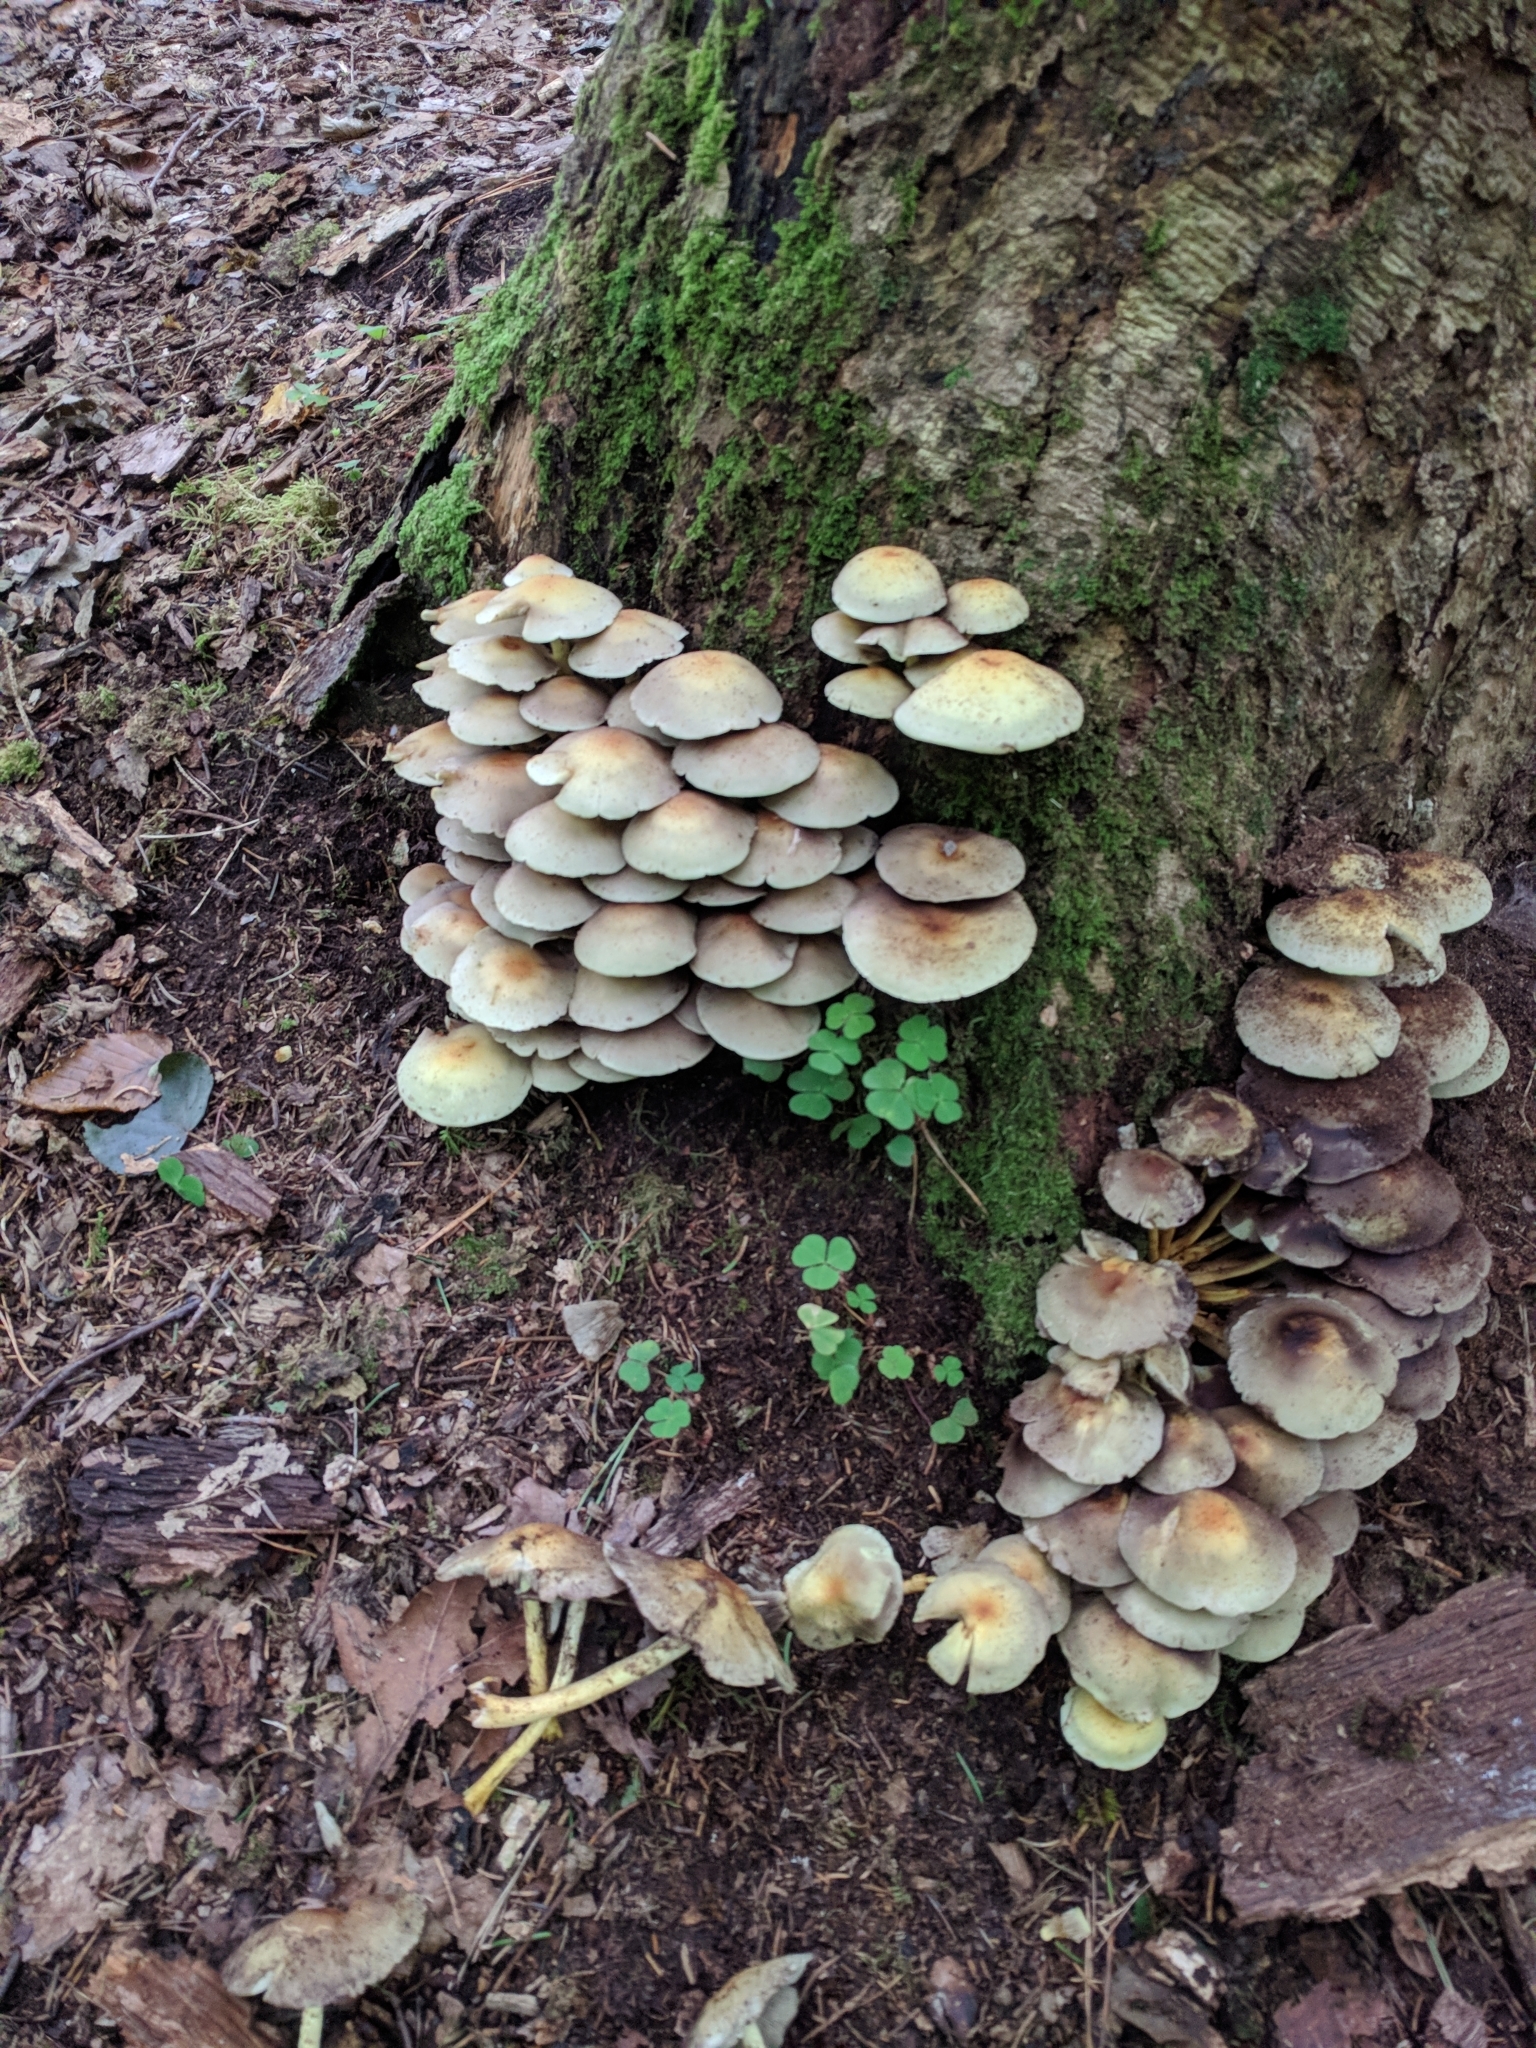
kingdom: Fungi
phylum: Basidiomycota
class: Agaricomycetes
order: Agaricales
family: Strophariaceae
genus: Hypholoma
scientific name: Hypholoma fasciculare
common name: Sulphur tuft
